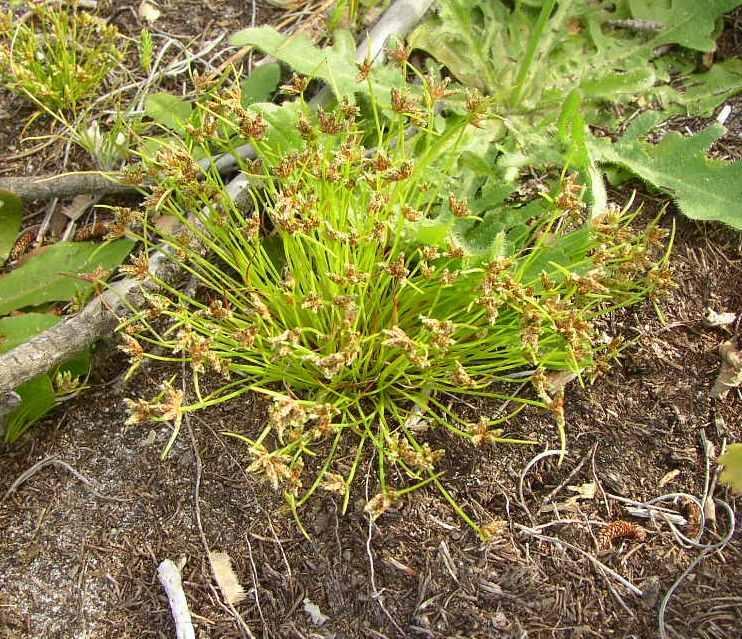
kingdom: Plantae
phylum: Tracheophyta
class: Liliopsida
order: Poales
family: Cyperaceae
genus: Isolepis
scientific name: Isolepis marginata
